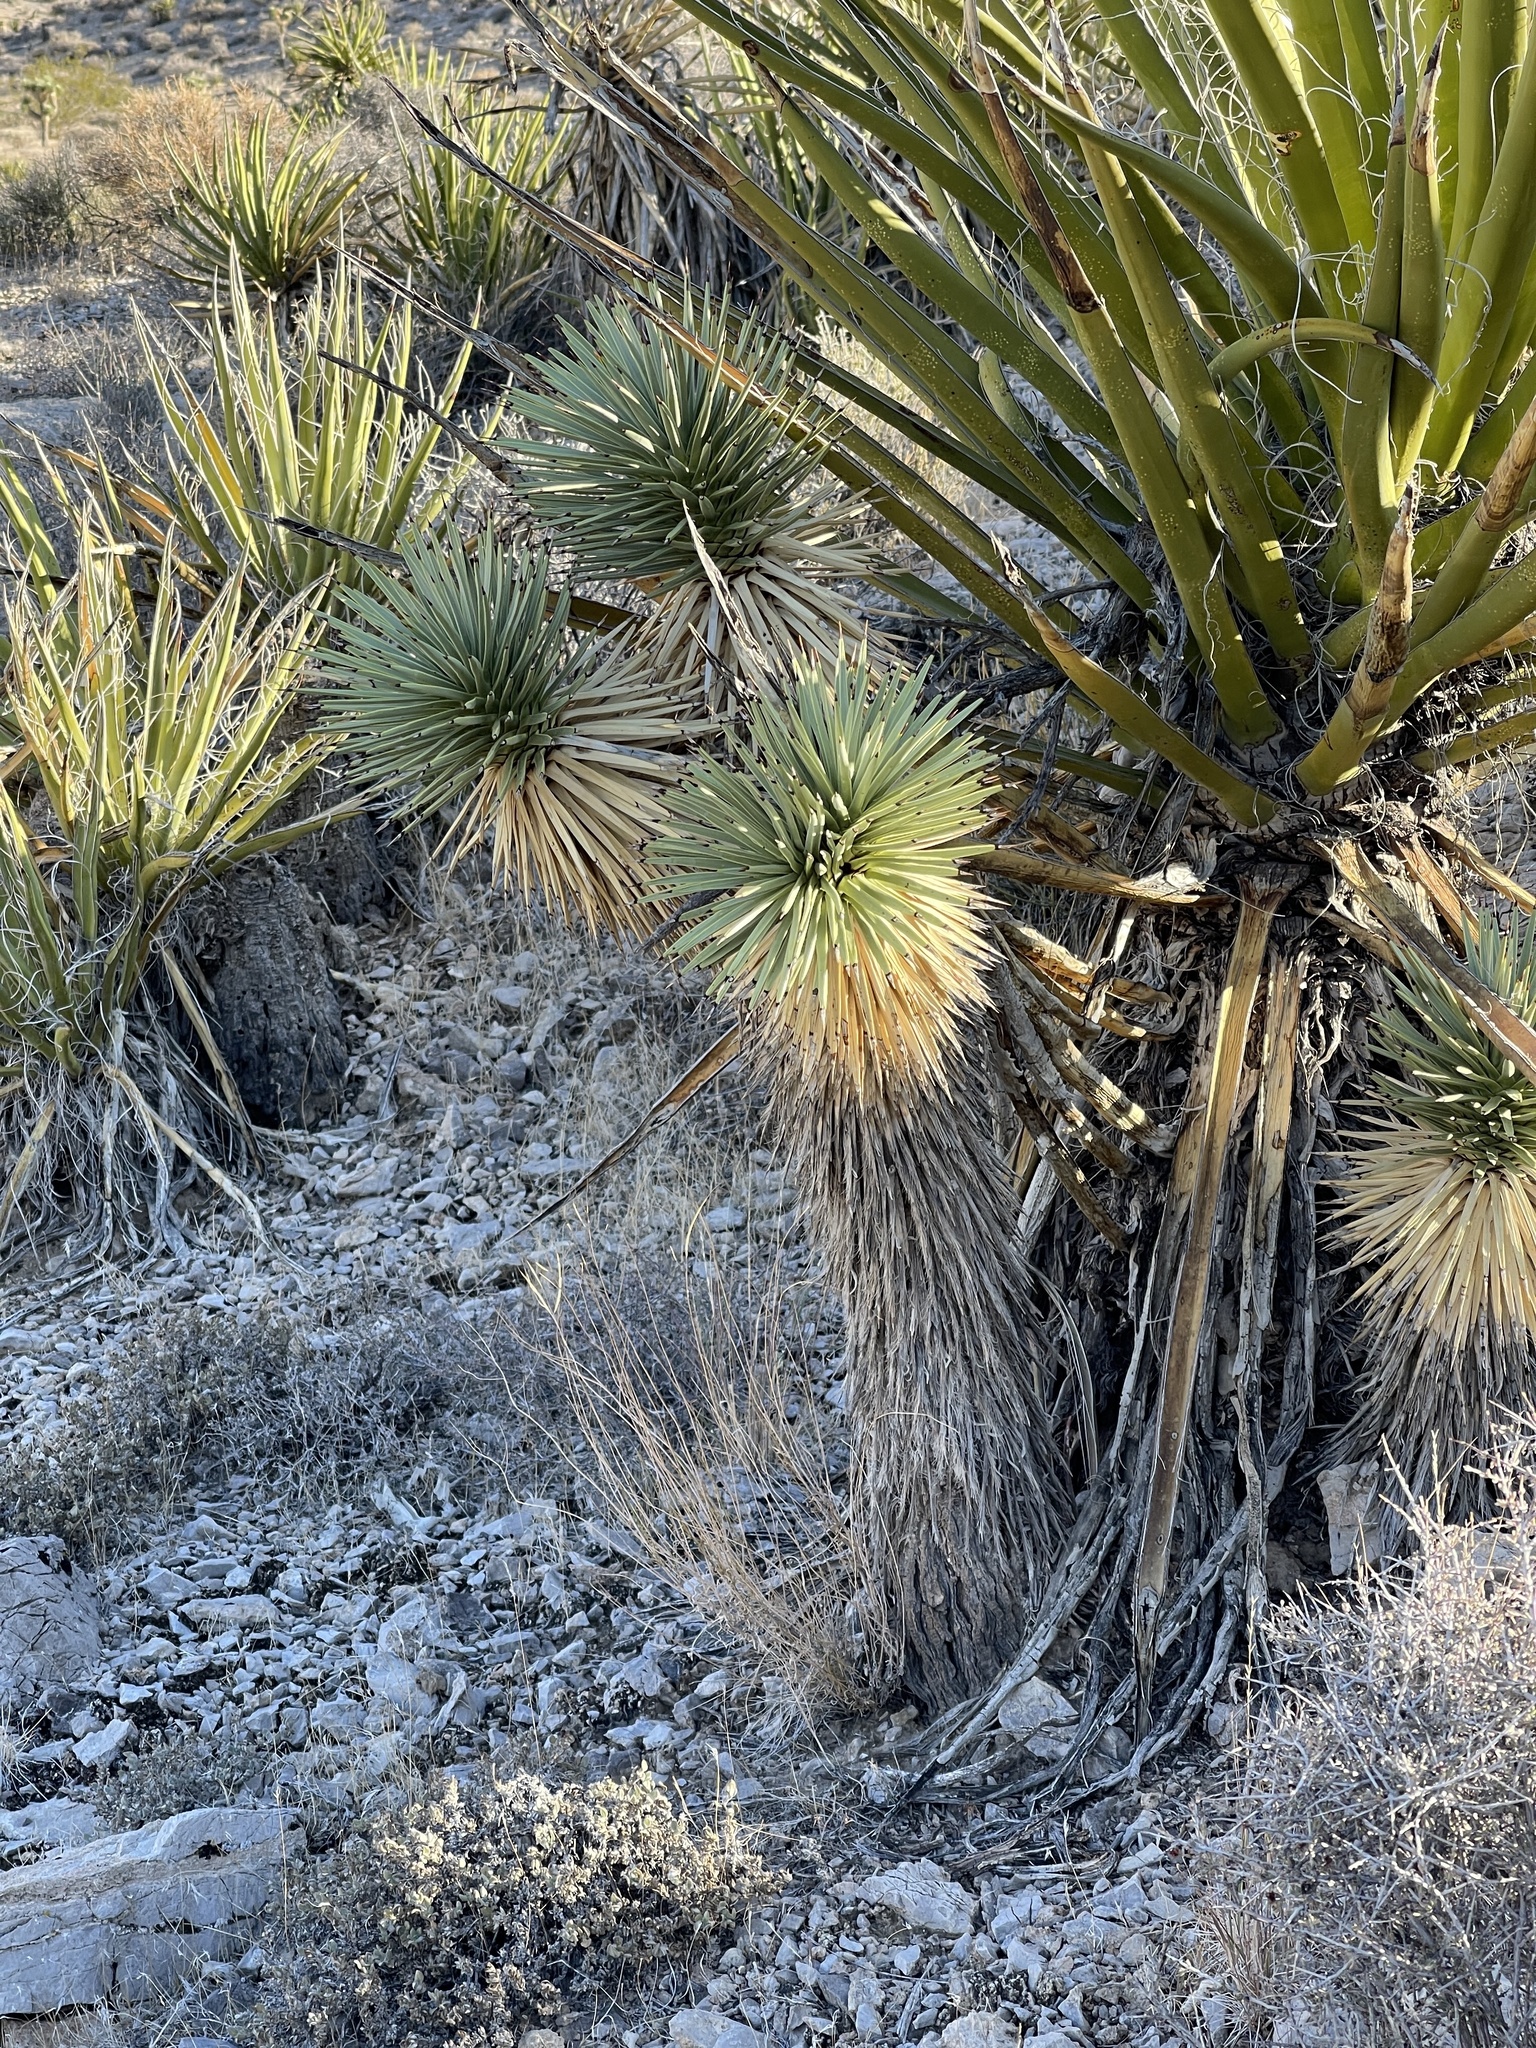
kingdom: Plantae
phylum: Tracheophyta
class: Liliopsida
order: Asparagales
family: Asparagaceae
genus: Yucca
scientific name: Yucca brevifolia
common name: Joshua tree
